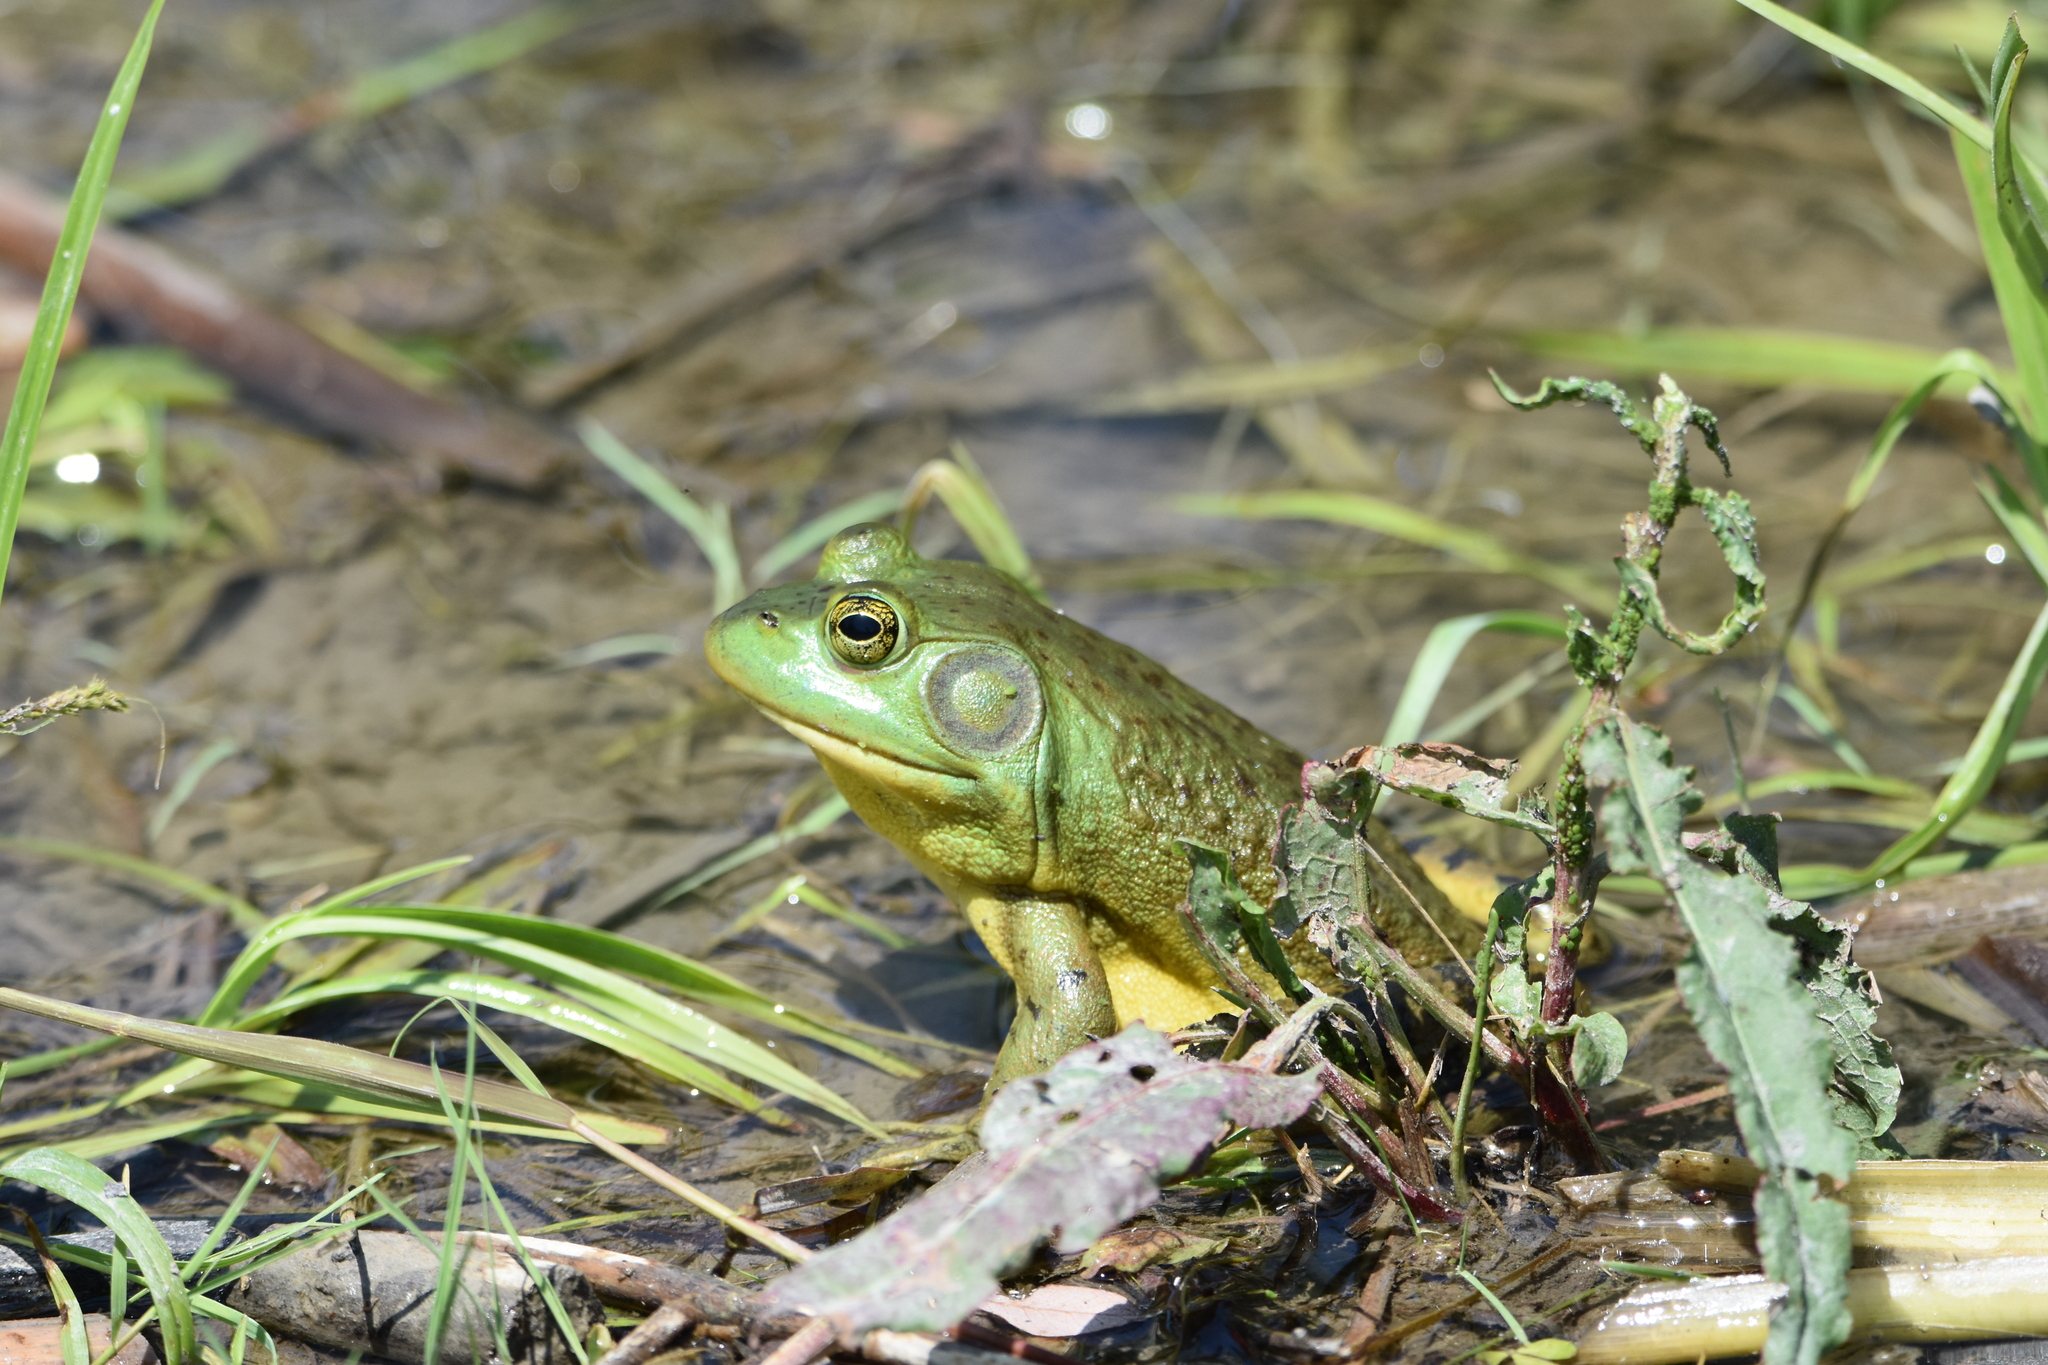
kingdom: Animalia
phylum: Chordata
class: Amphibia
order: Anura
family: Ranidae
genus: Lithobates
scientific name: Lithobates catesbeianus
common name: American bullfrog
